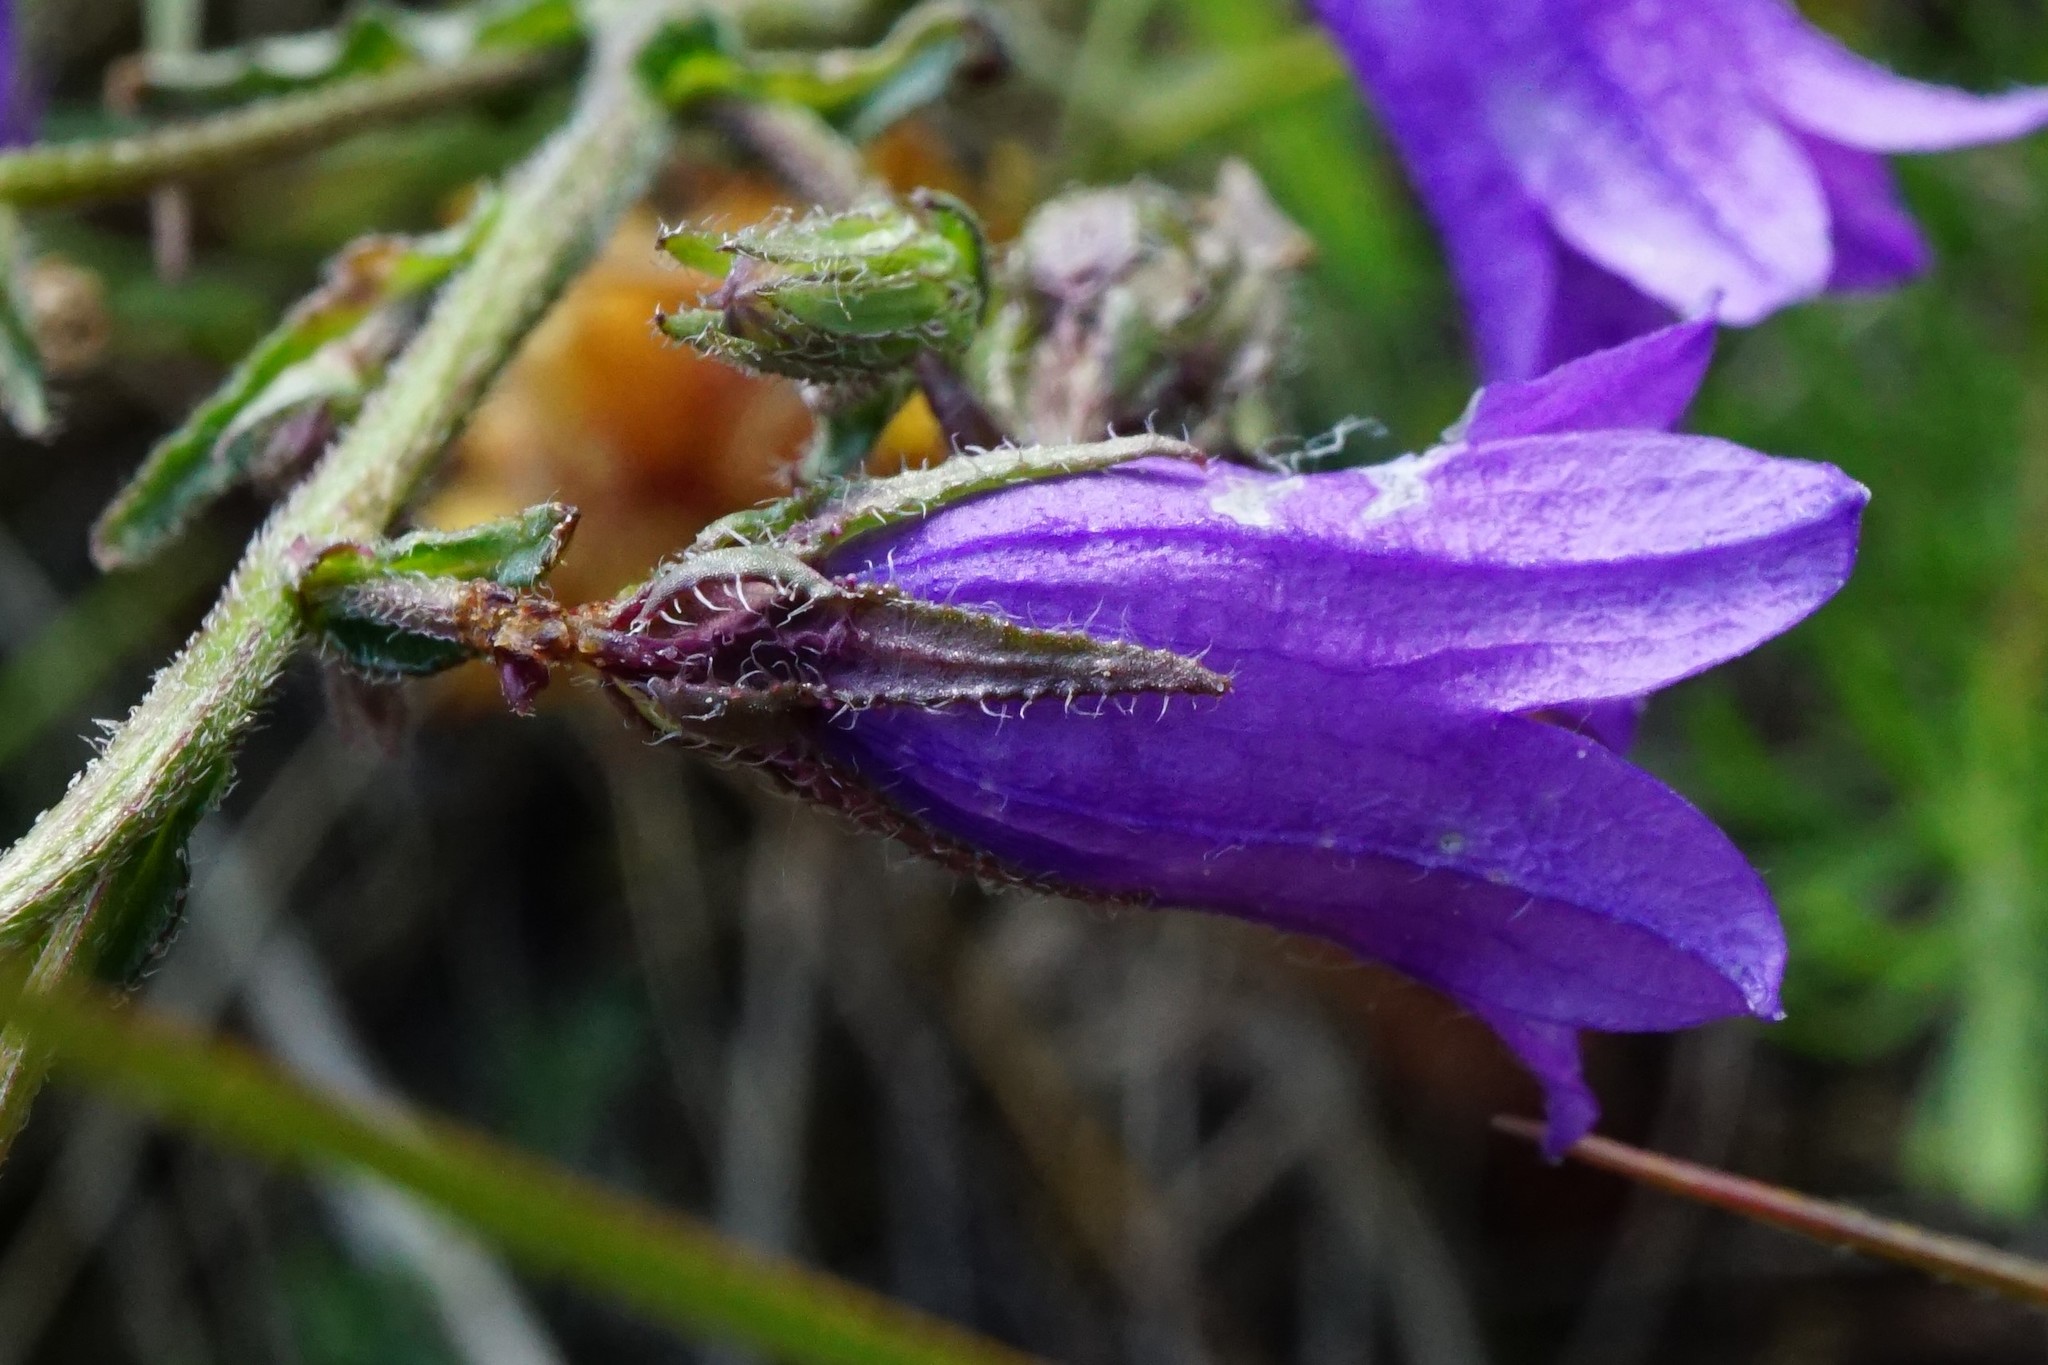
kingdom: Plantae
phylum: Tracheophyta
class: Magnoliopsida
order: Asterales
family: Campanulaceae
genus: Campanula
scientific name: Campanula sibirica
